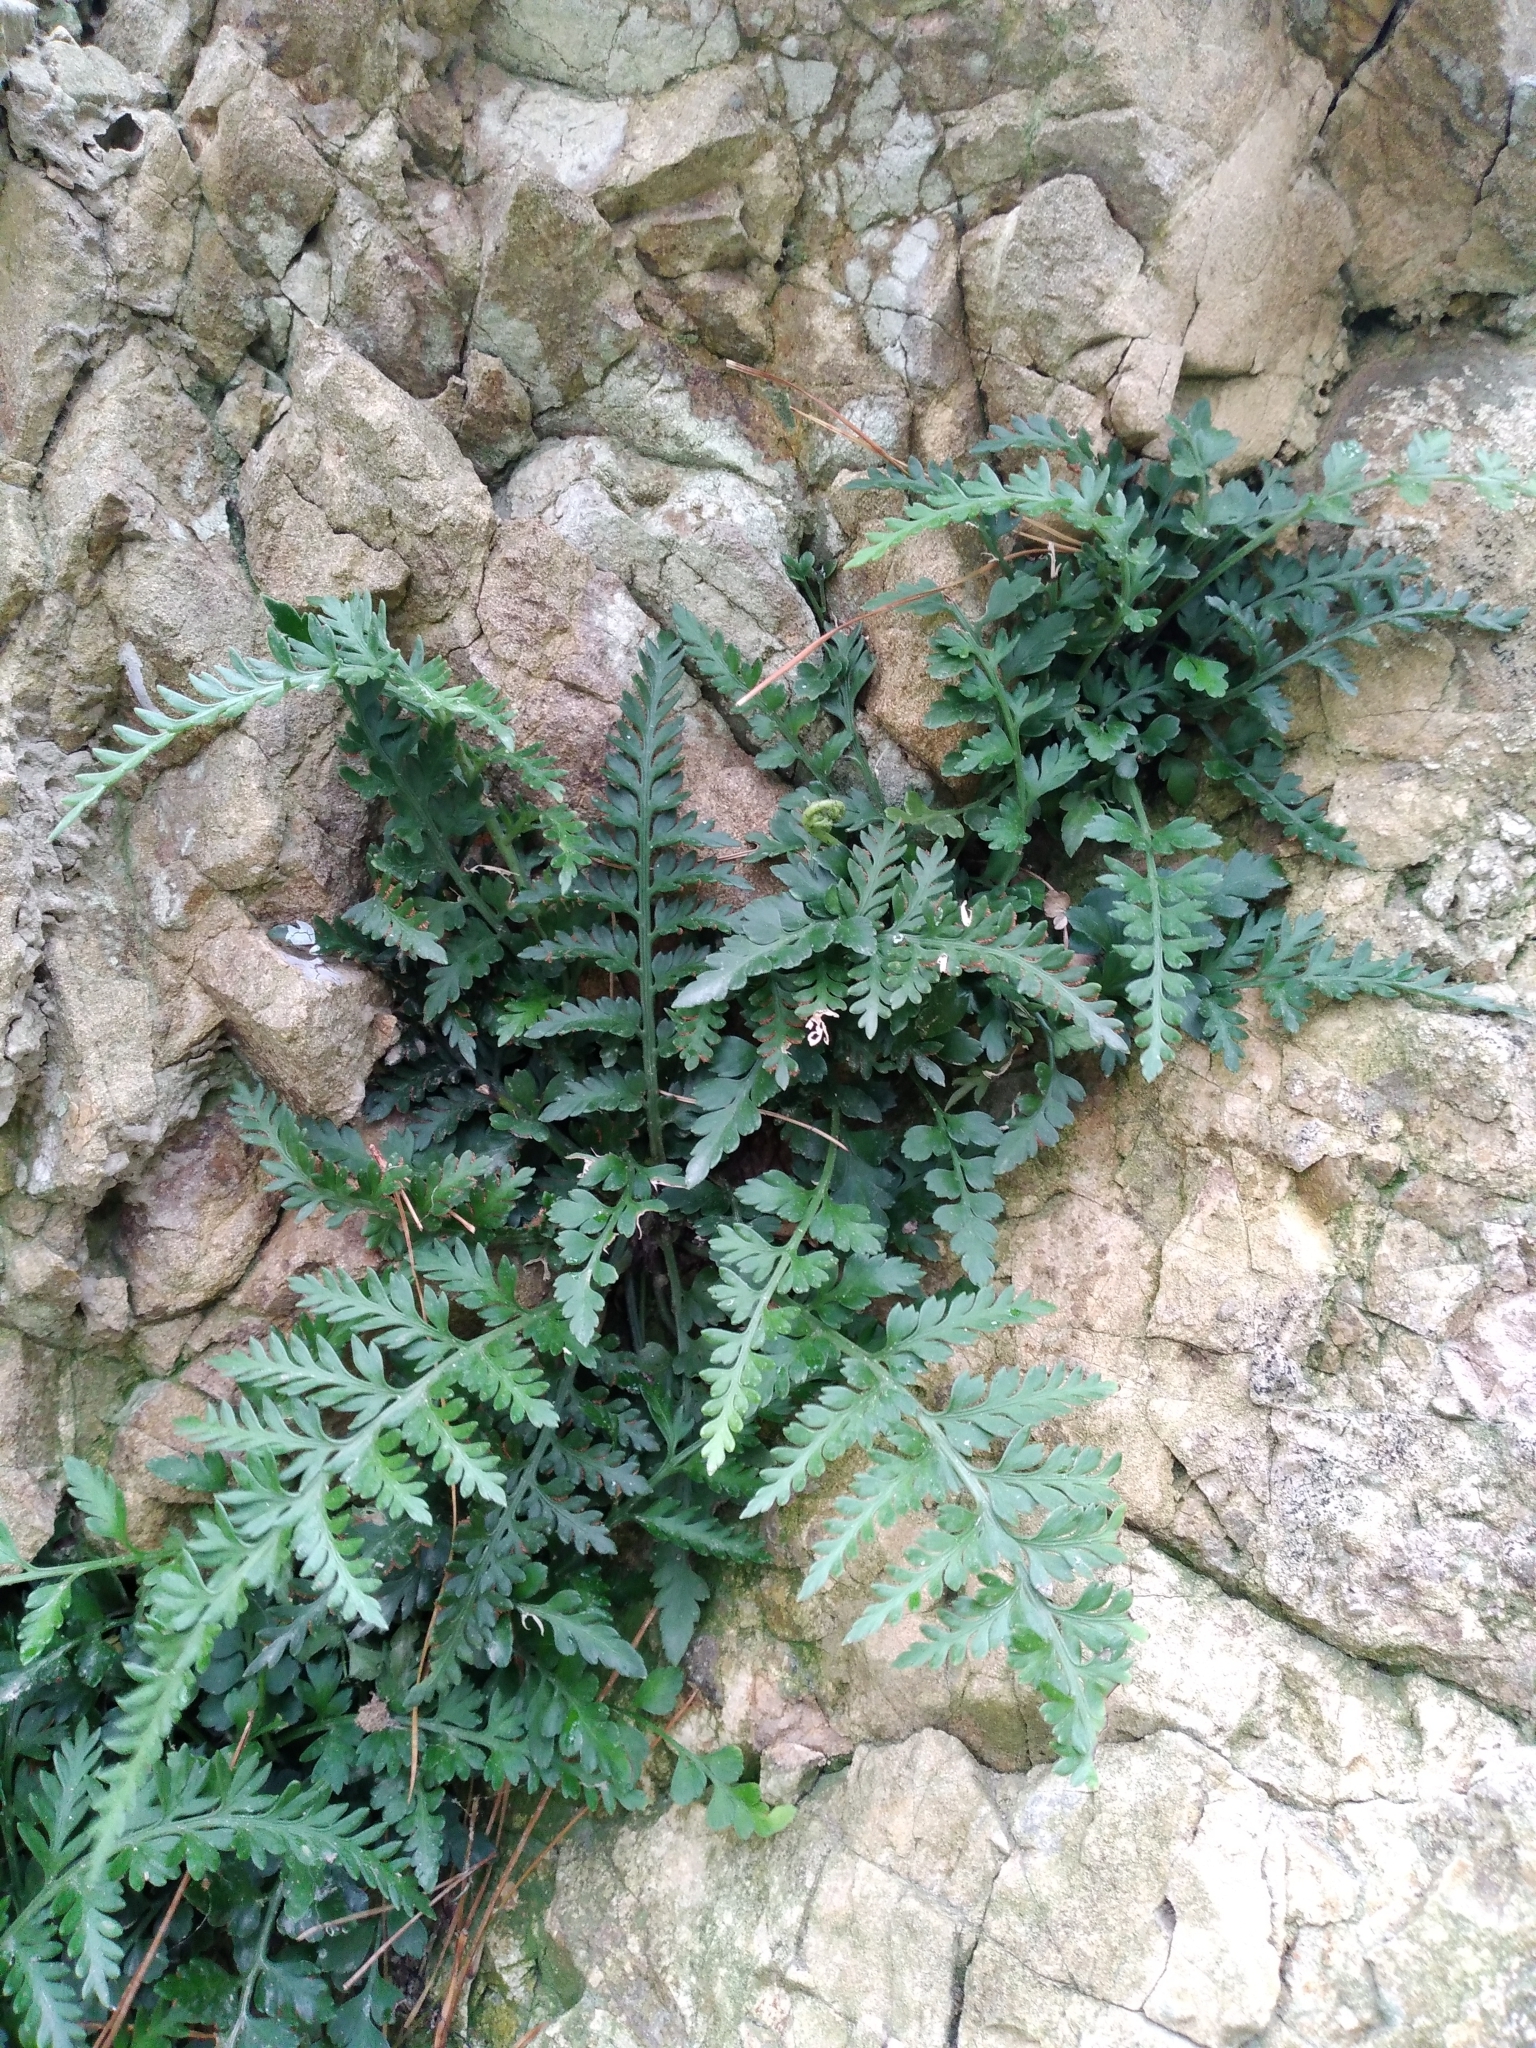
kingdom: Plantae
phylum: Tracheophyta
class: Polypodiopsida
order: Polypodiales
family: Aspleniaceae
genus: Asplenium
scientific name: Asplenium appendiculatum
